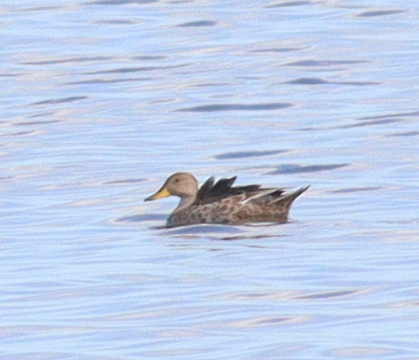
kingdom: Animalia
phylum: Chordata
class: Aves
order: Anseriformes
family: Anatidae
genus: Anas
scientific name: Anas georgica
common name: Yellow-billed pintail
